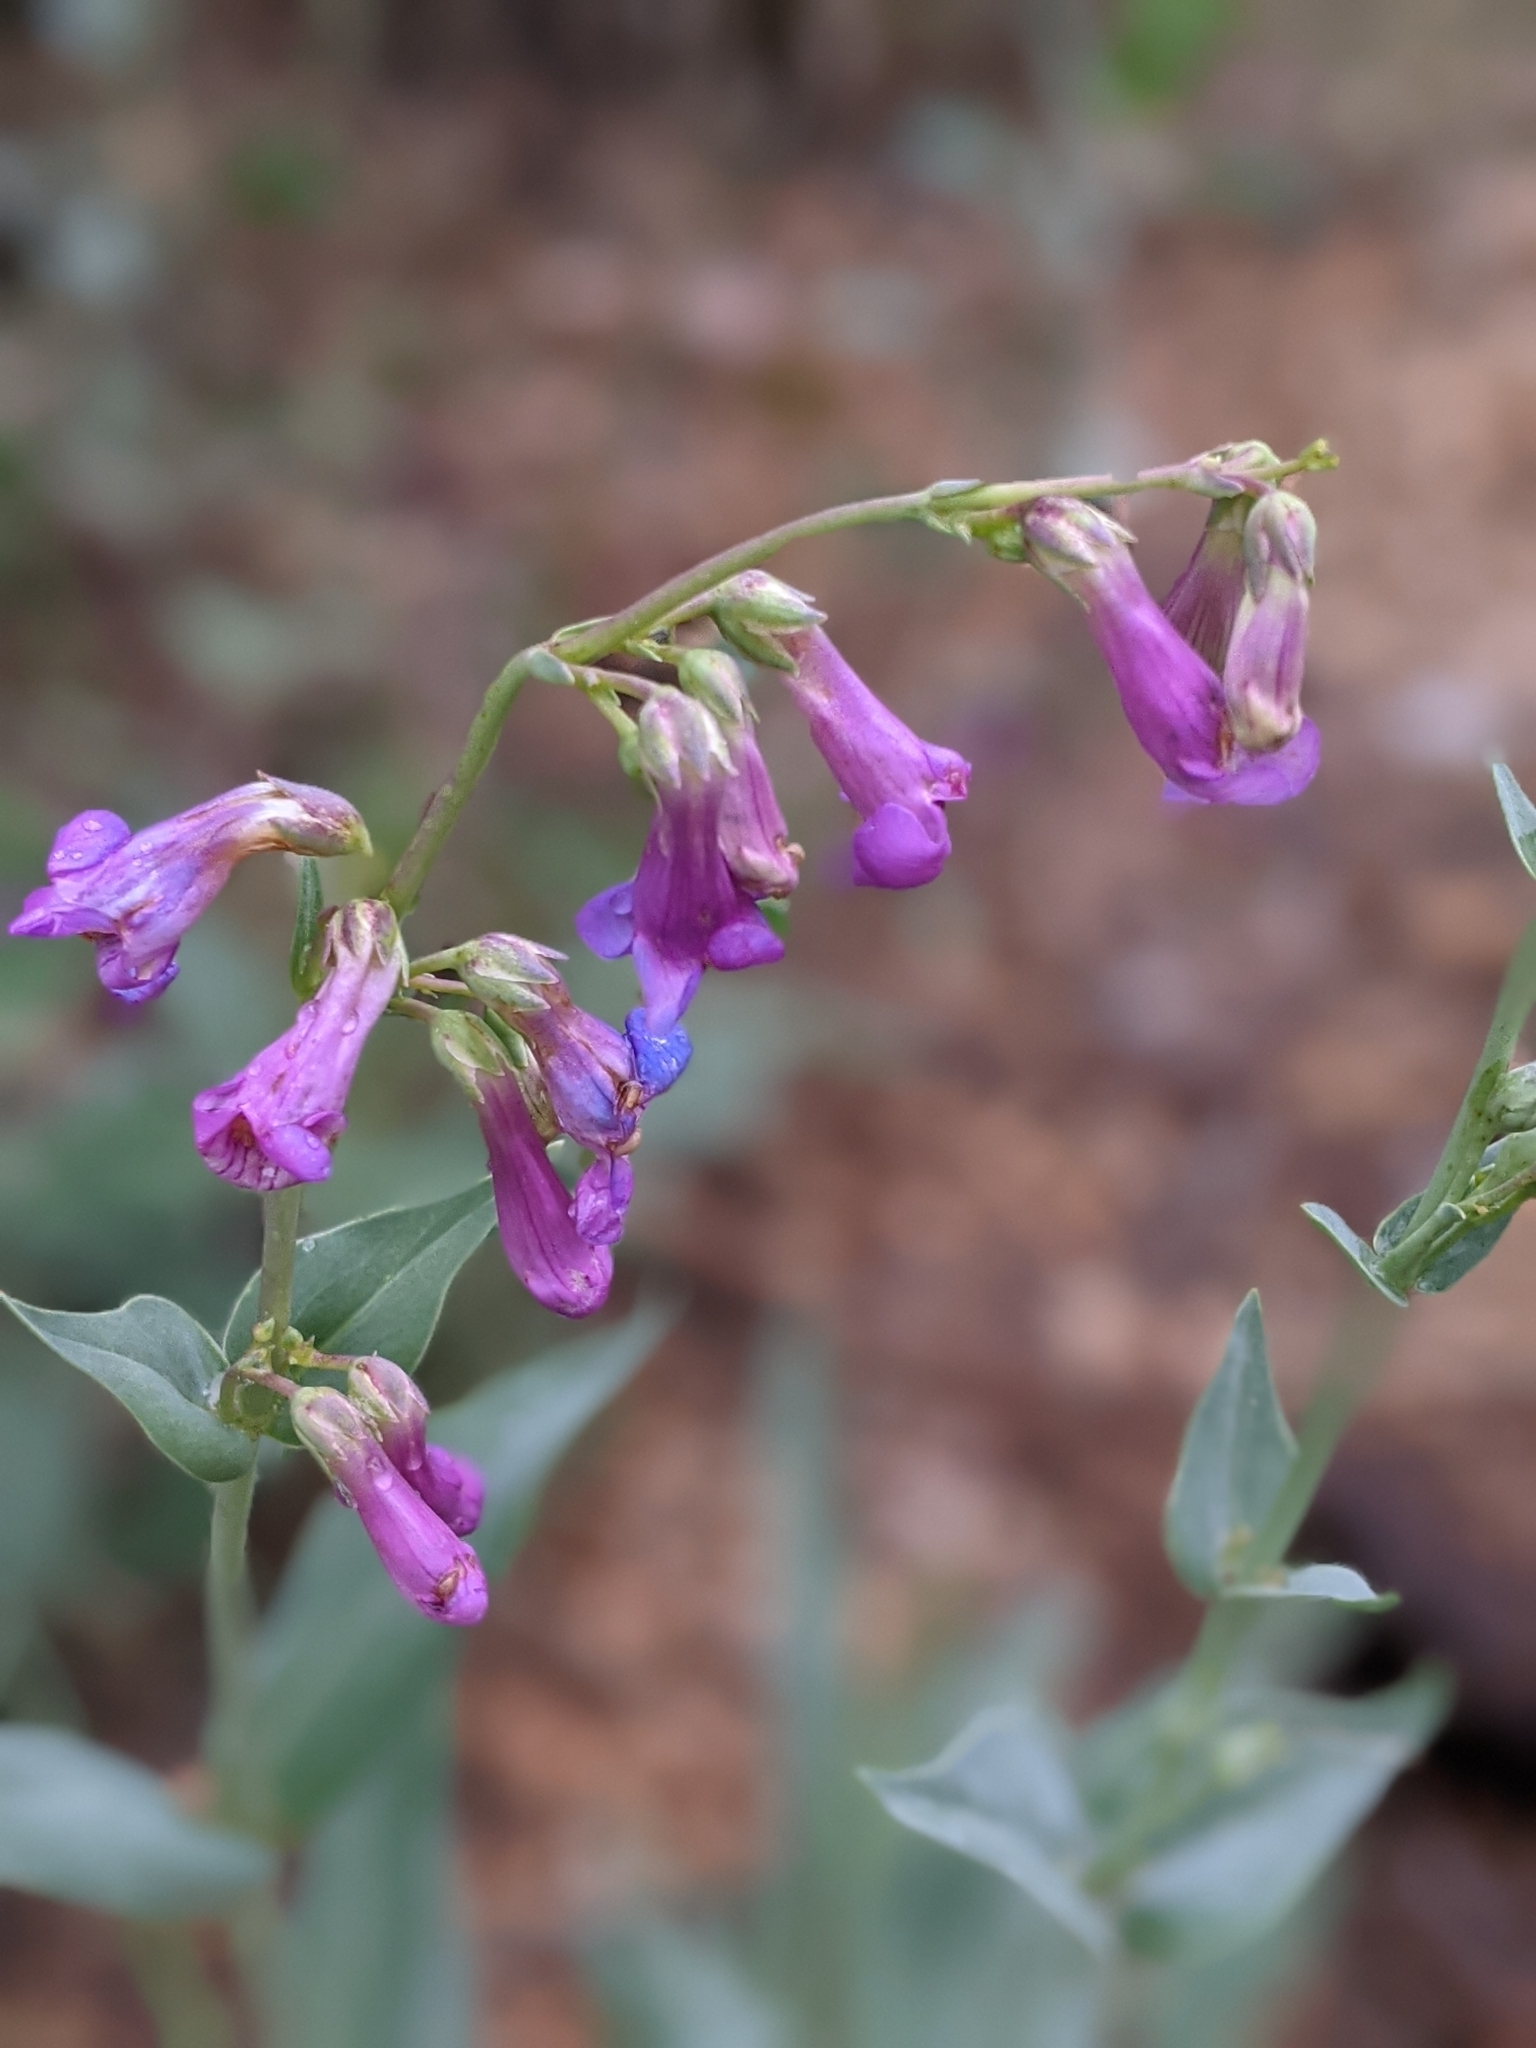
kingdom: Plantae
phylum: Tracheophyta
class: Magnoliopsida
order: Lamiales
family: Plantaginaceae
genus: Penstemon
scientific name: Penstemon secundiflorus
